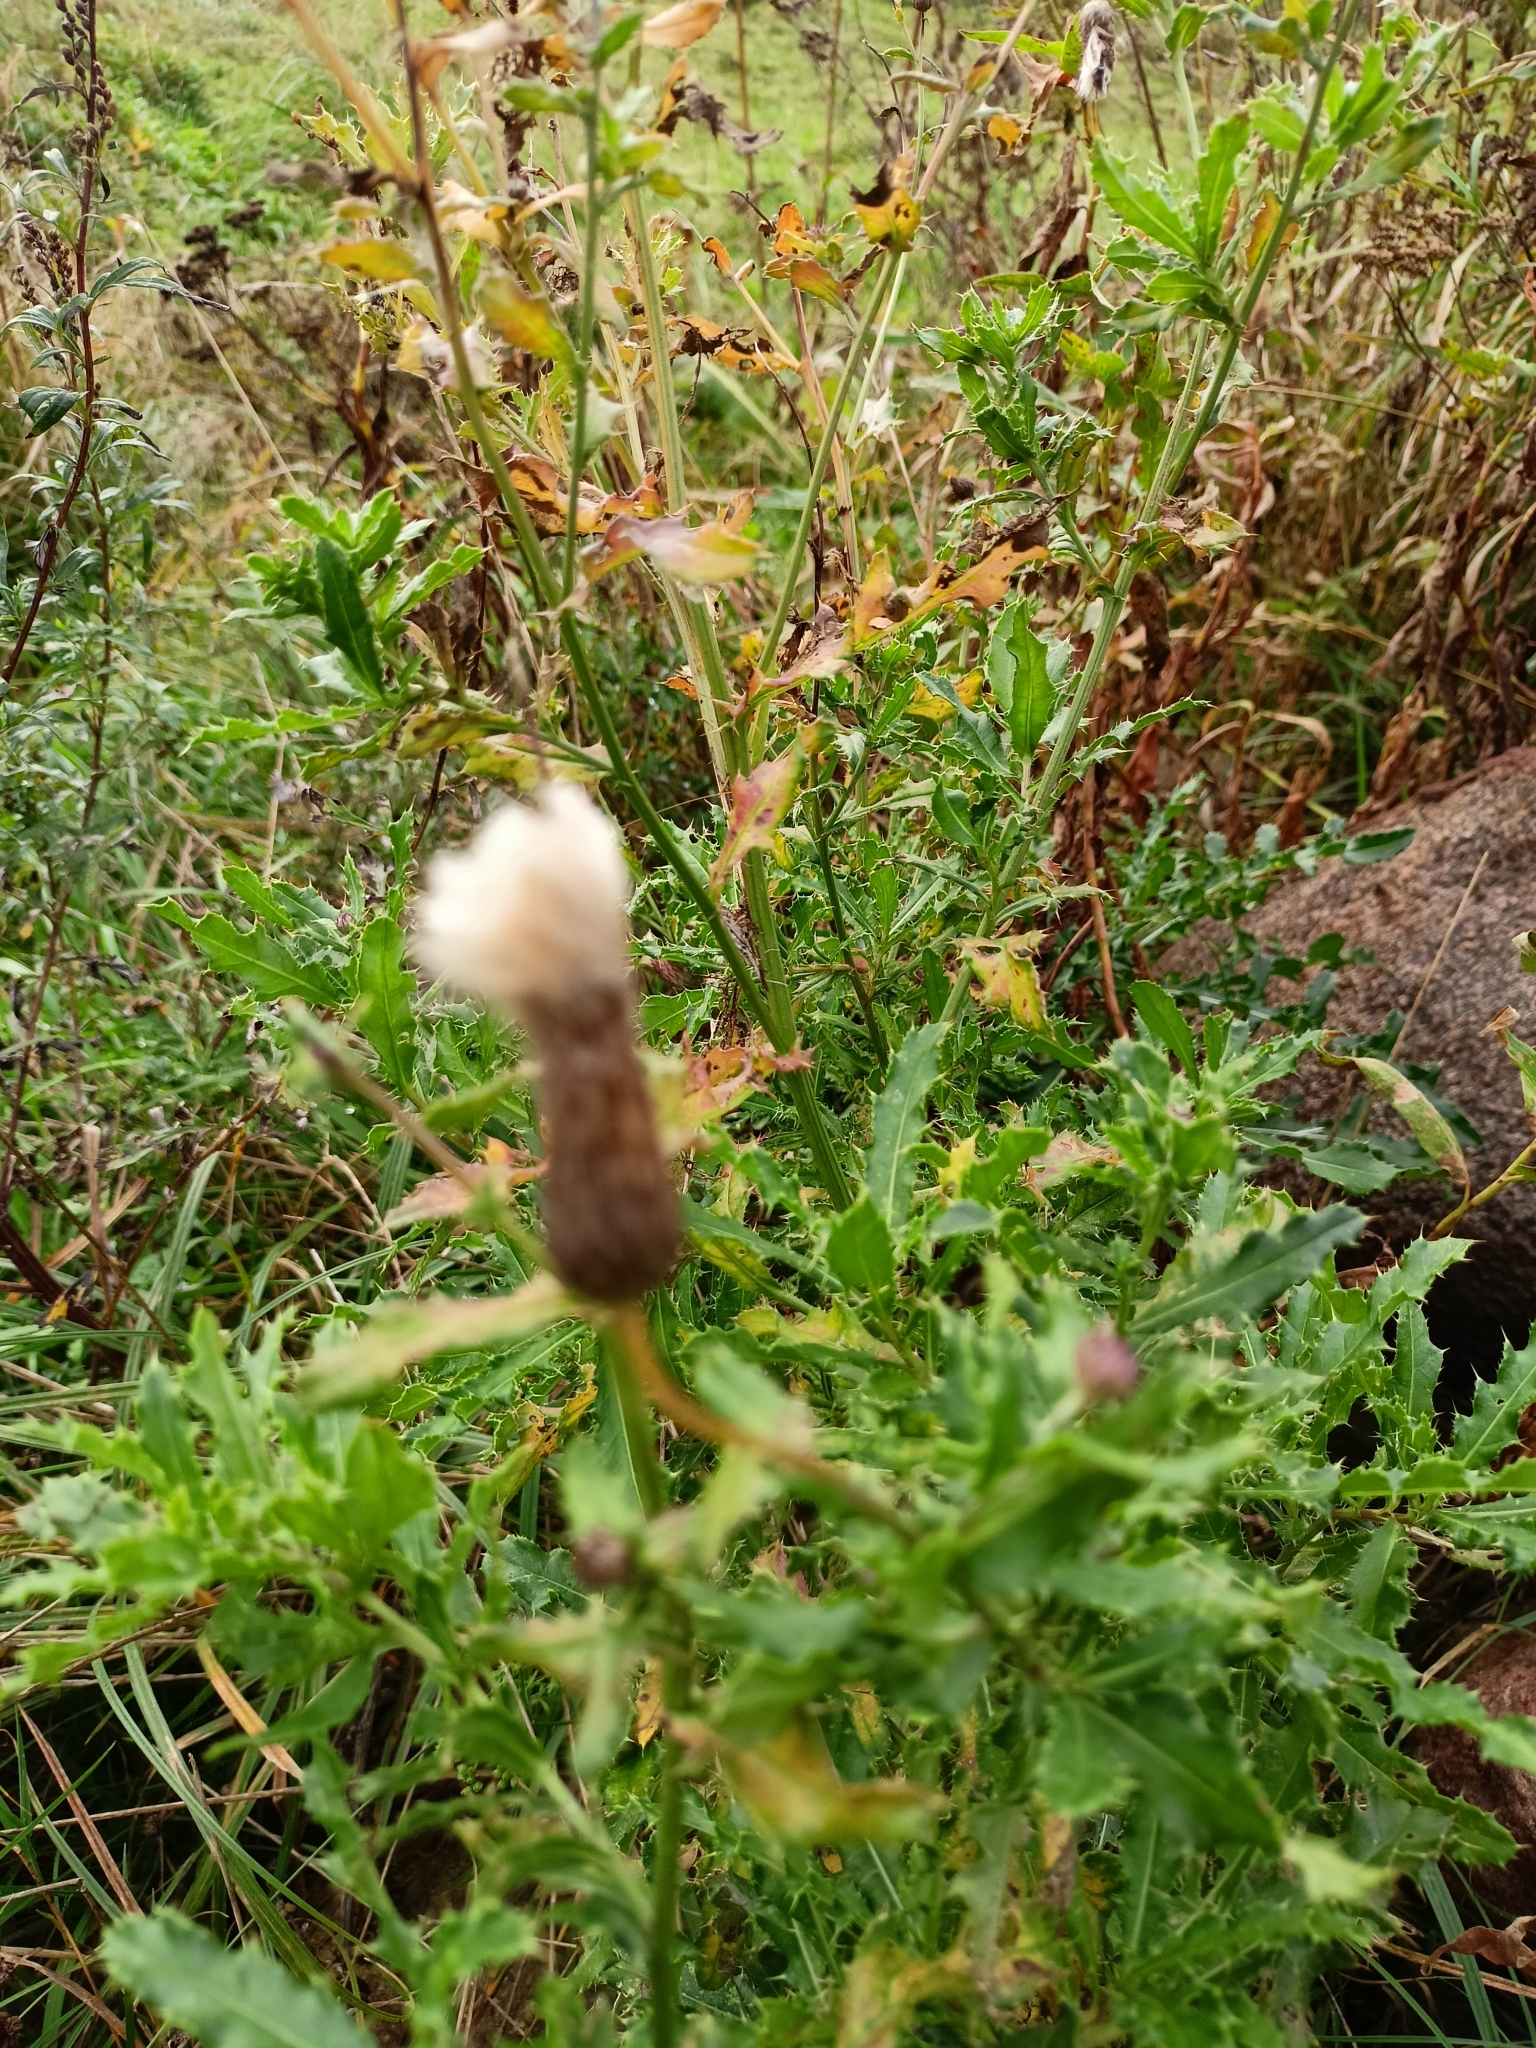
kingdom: Plantae
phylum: Tracheophyta
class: Magnoliopsida
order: Asterales
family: Asteraceae
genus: Cirsium
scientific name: Cirsium arvense
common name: Creeping thistle
